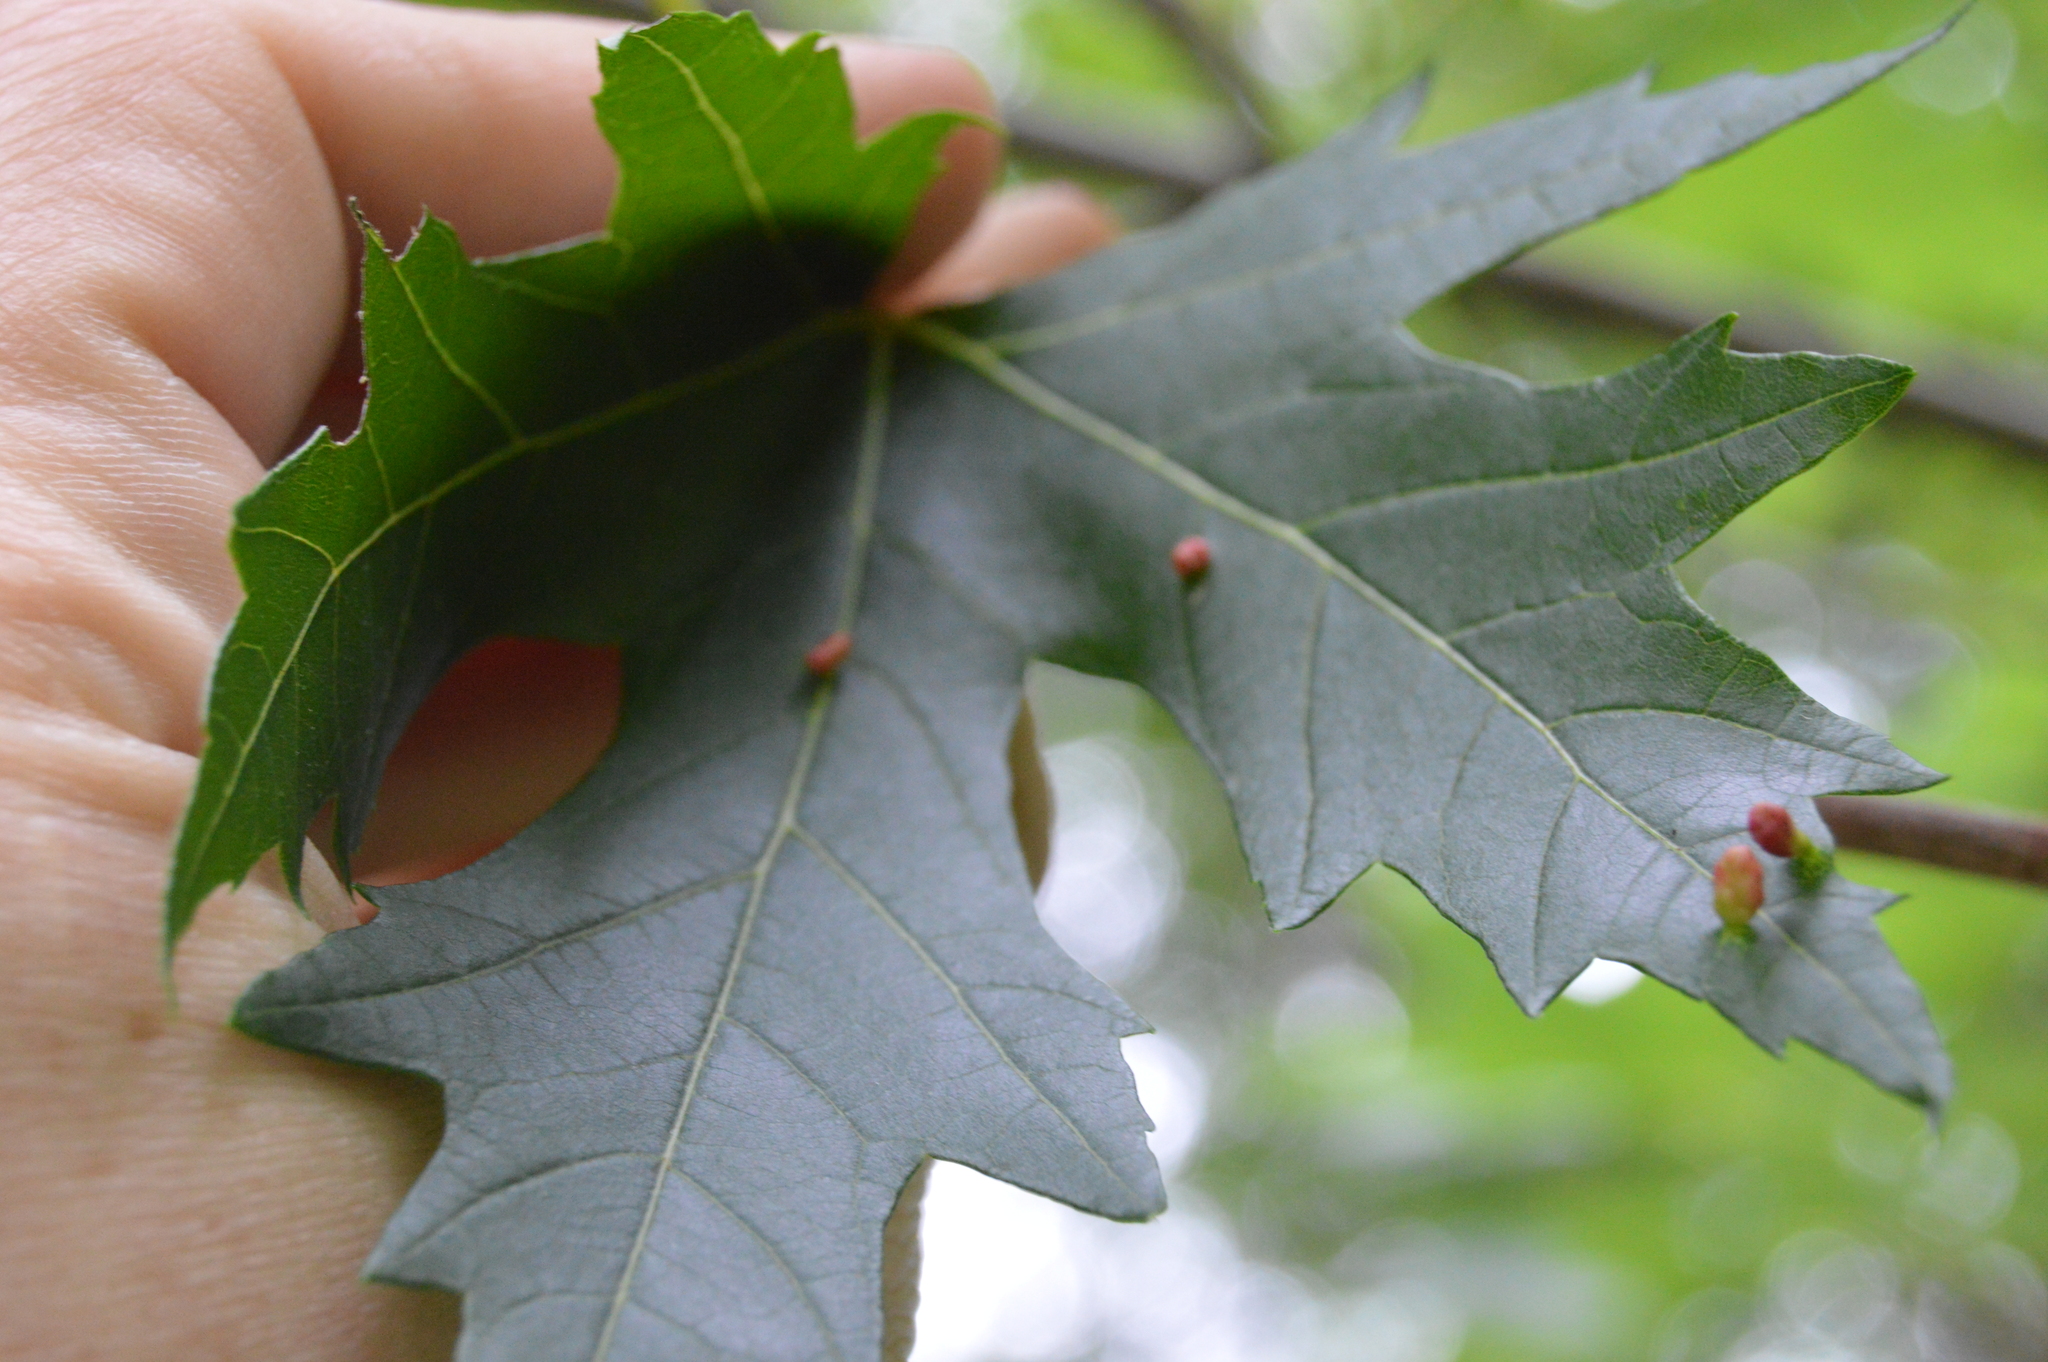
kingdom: Animalia
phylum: Arthropoda
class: Arachnida
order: Trombidiformes
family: Eriophyidae
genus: Vasates
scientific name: Vasates quadripedes
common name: Maple bladder gall mite
